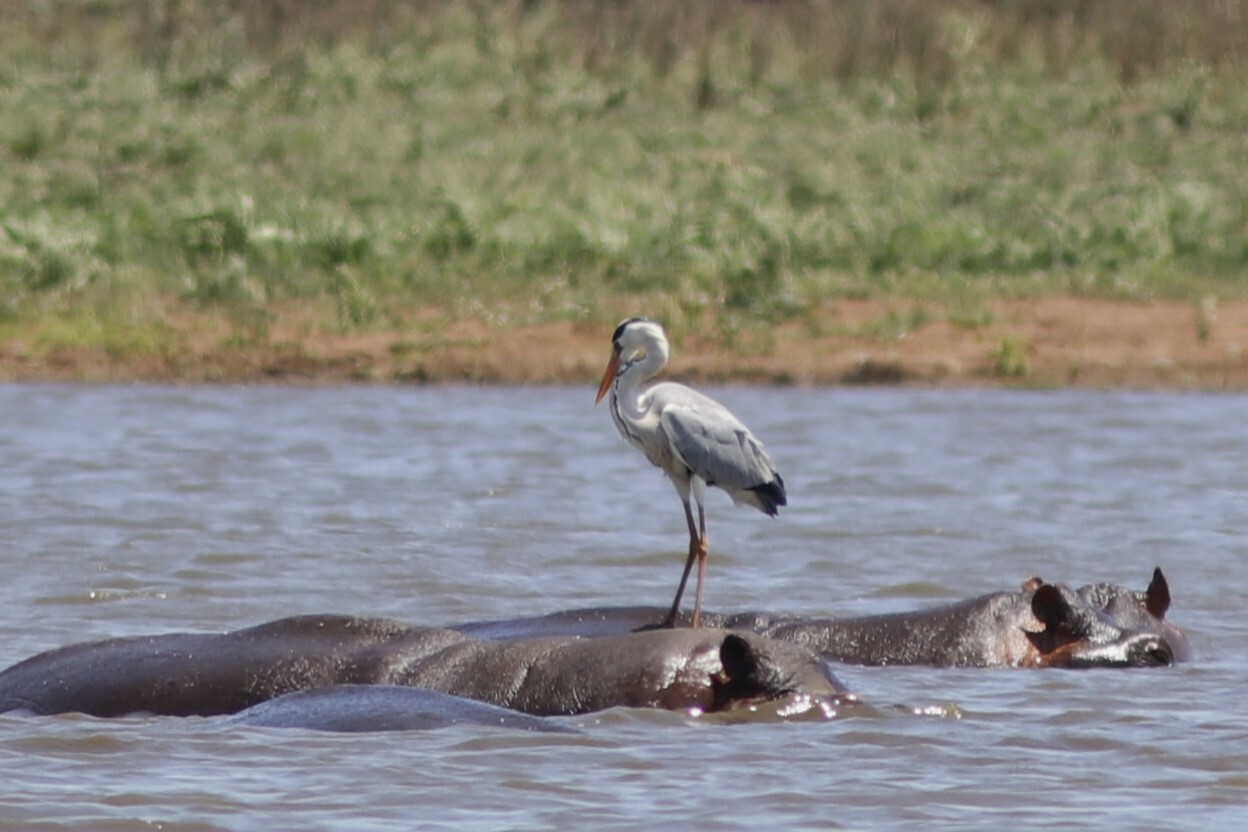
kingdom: Animalia
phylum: Chordata
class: Aves
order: Pelecaniformes
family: Ardeidae
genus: Ardea
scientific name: Ardea cinerea
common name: Grey heron
